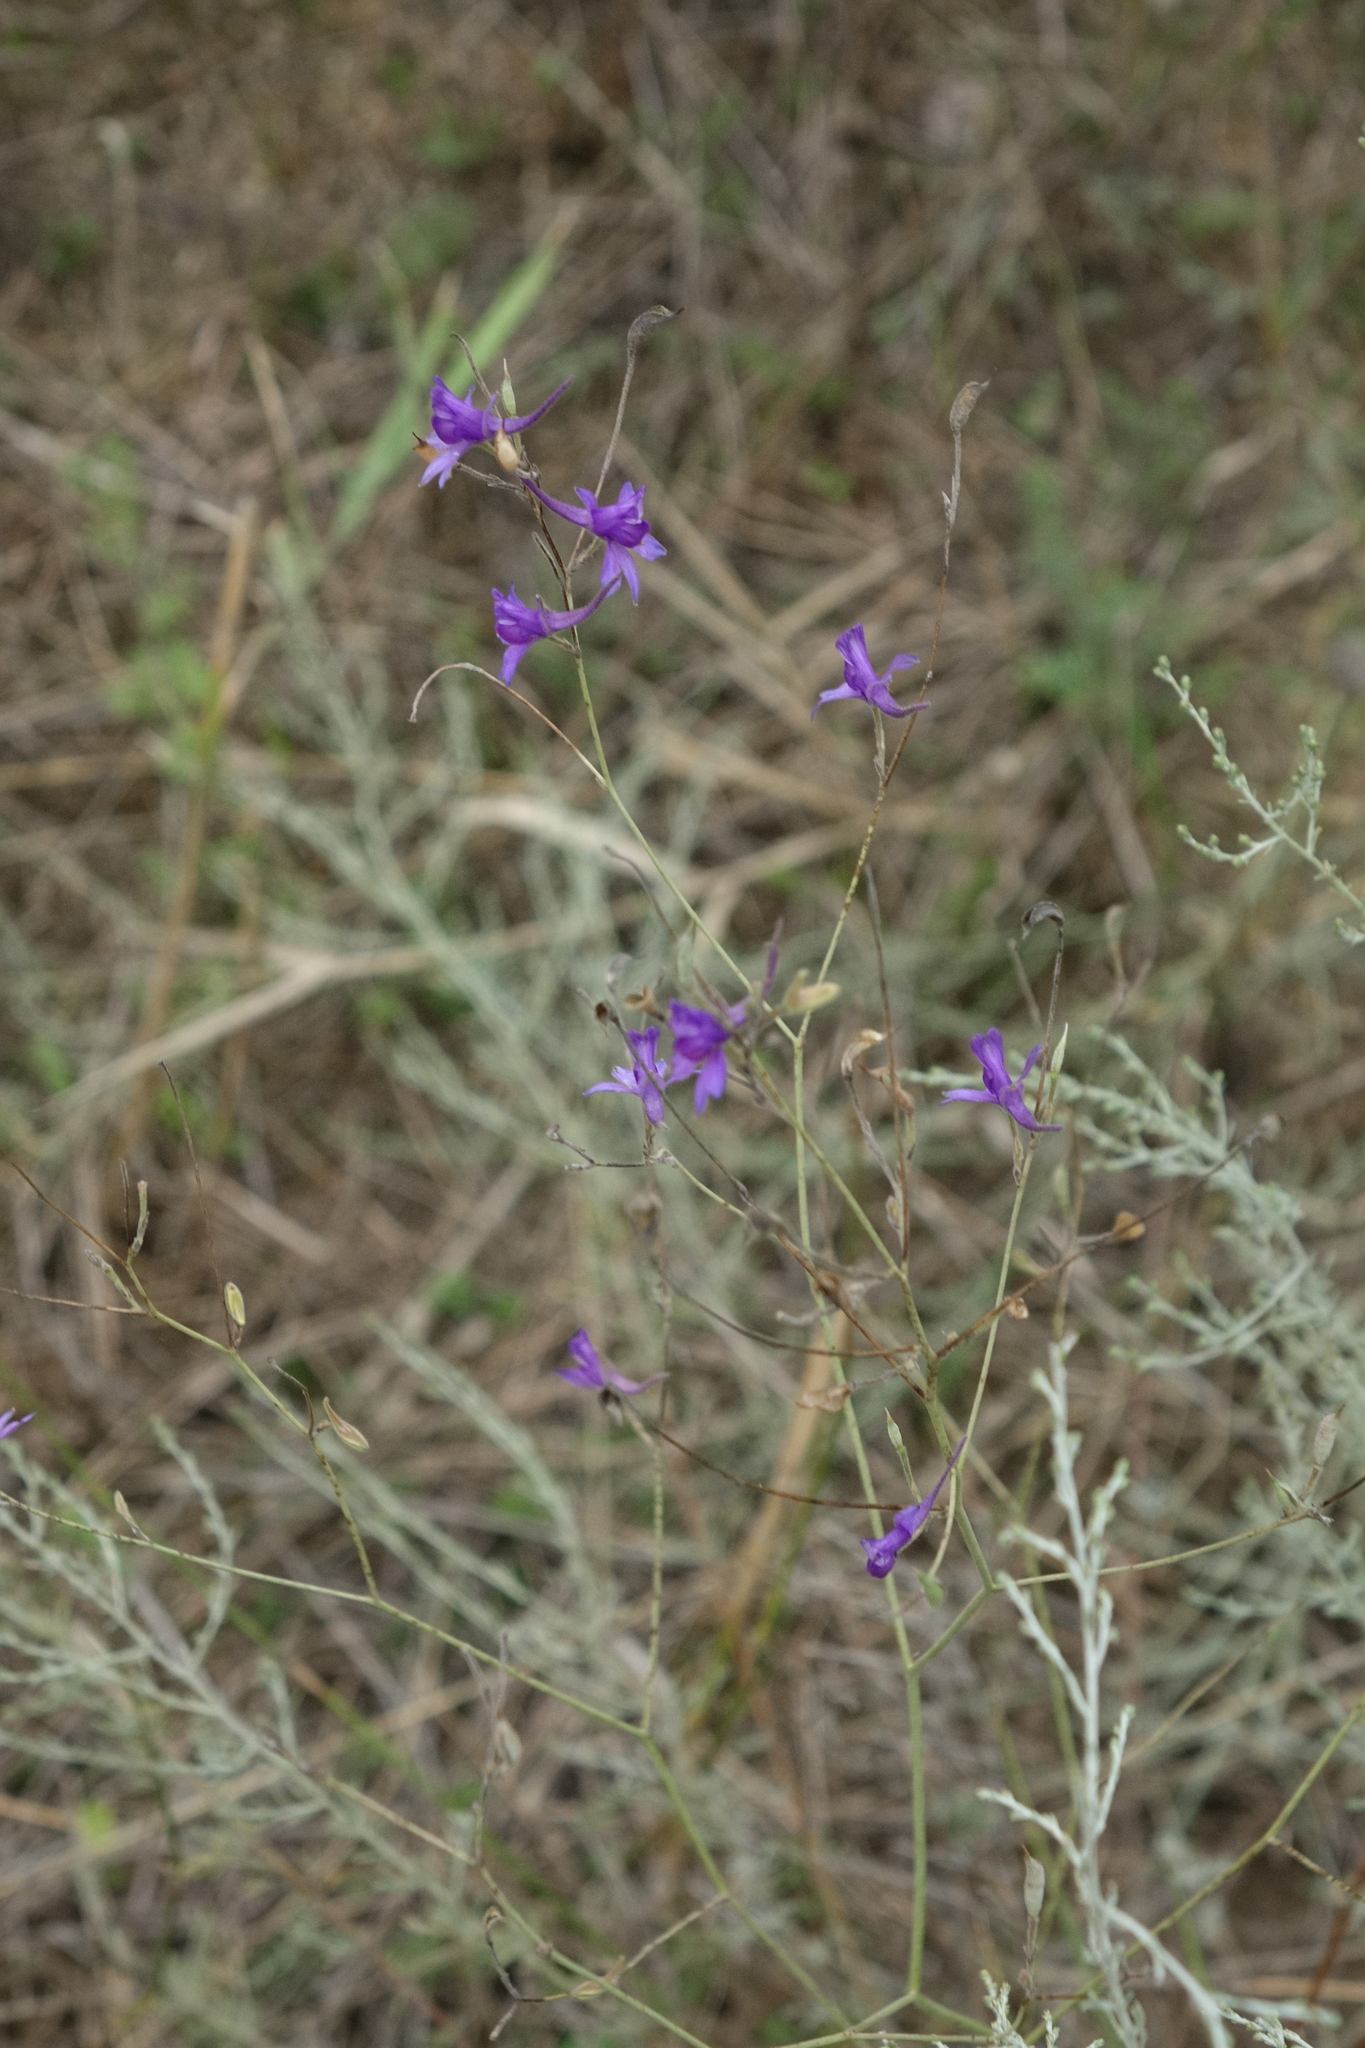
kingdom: Plantae
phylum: Tracheophyta
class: Magnoliopsida
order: Ranunculales
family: Ranunculaceae
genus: Delphinium
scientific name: Delphinium consolida
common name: Branching larkspur
